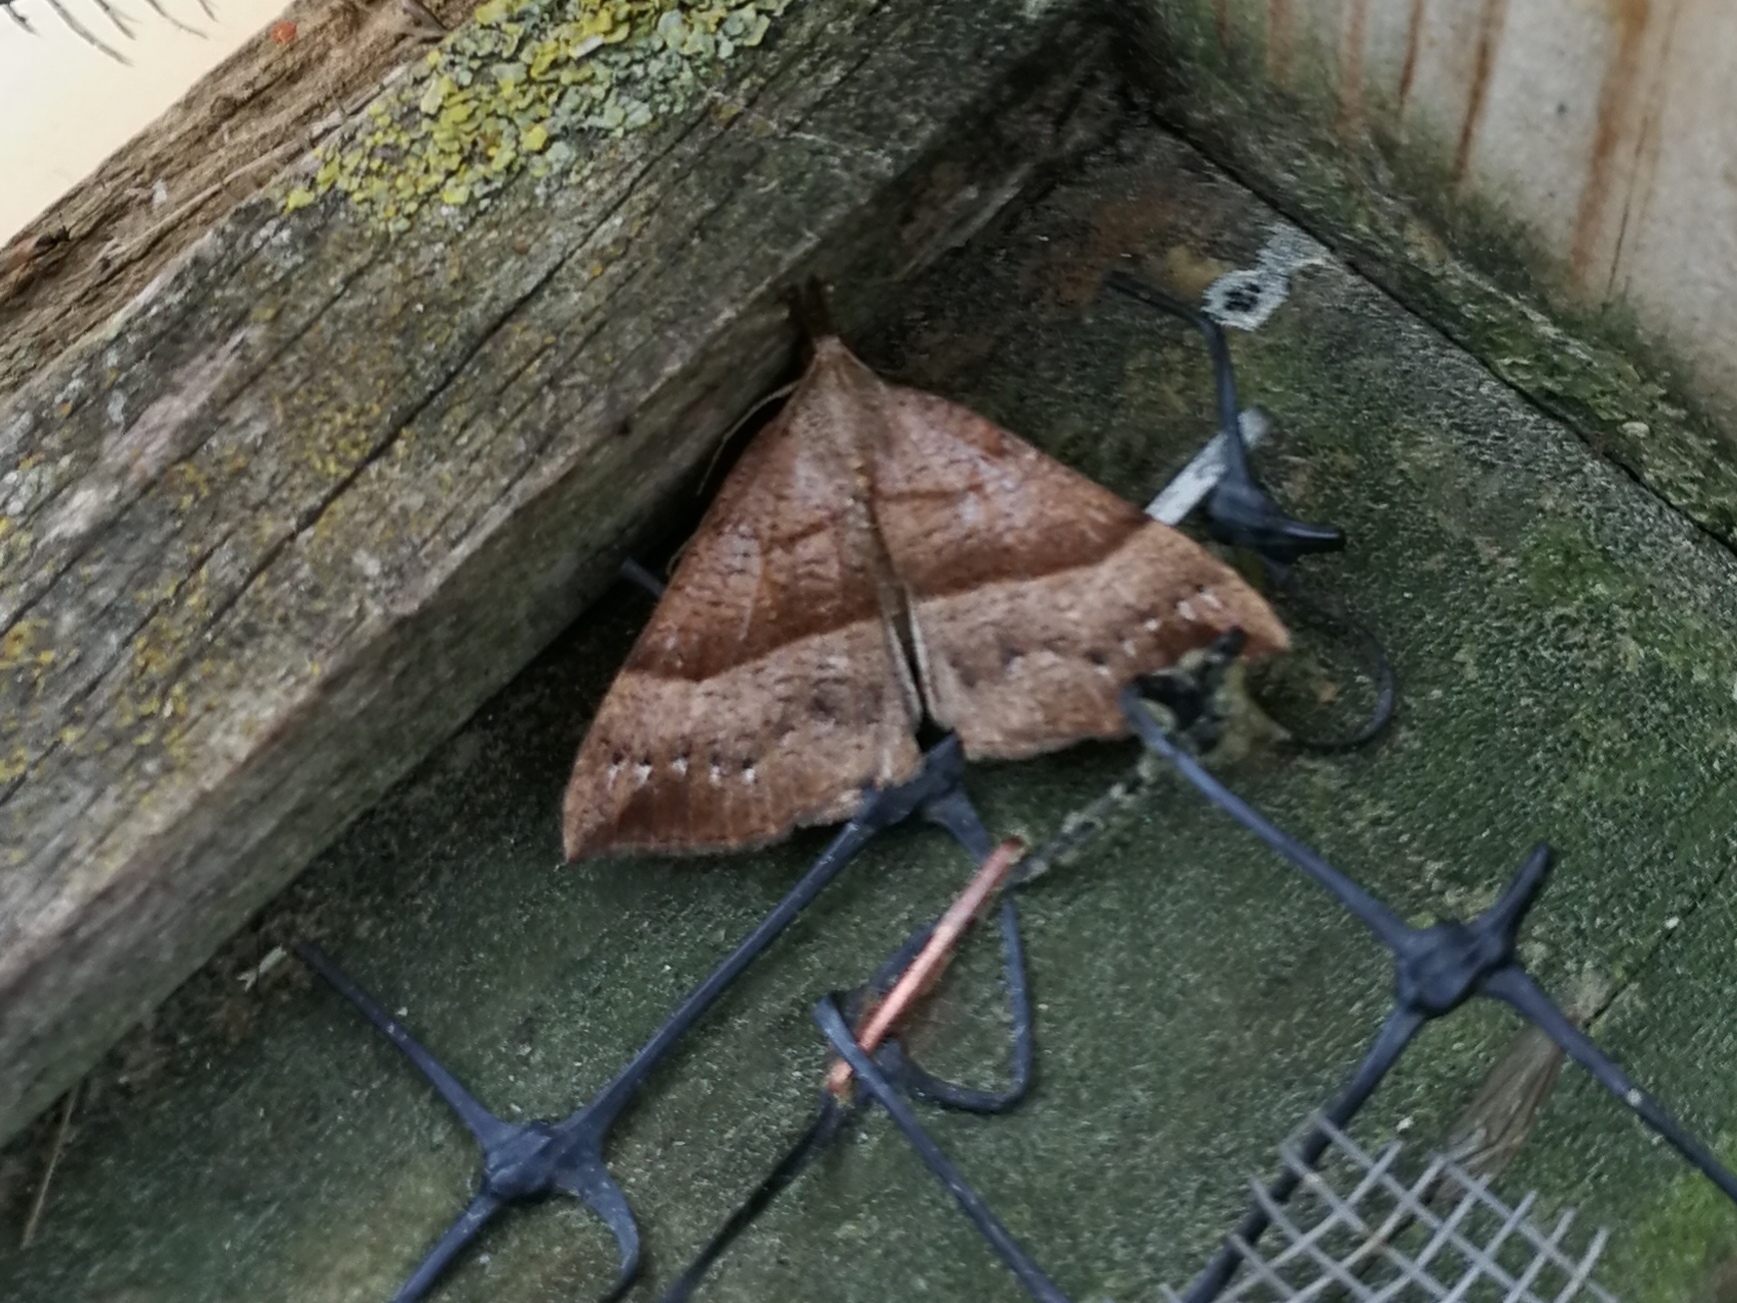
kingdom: Animalia
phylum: Arthropoda
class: Insecta
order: Lepidoptera
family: Erebidae
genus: Hypena
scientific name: Hypena proboscidalis
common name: Snout
